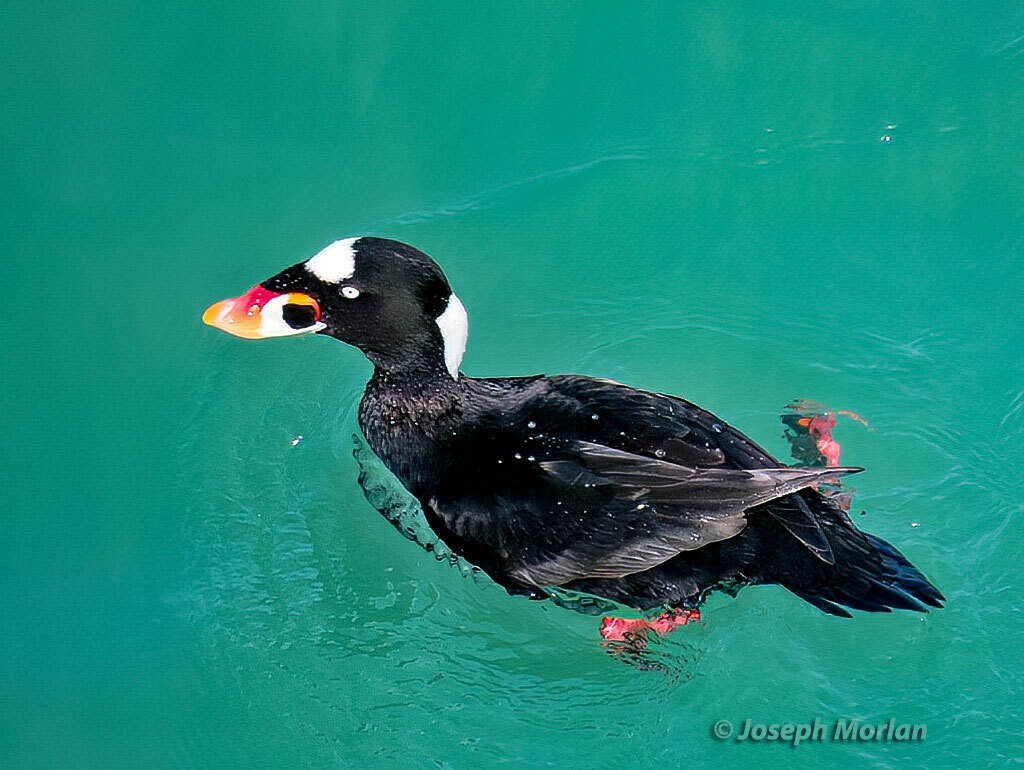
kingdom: Animalia
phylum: Chordata
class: Aves
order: Anseriformes
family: Anatidae
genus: Melanitta
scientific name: Melanitta perspicillata
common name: Surf scoter
